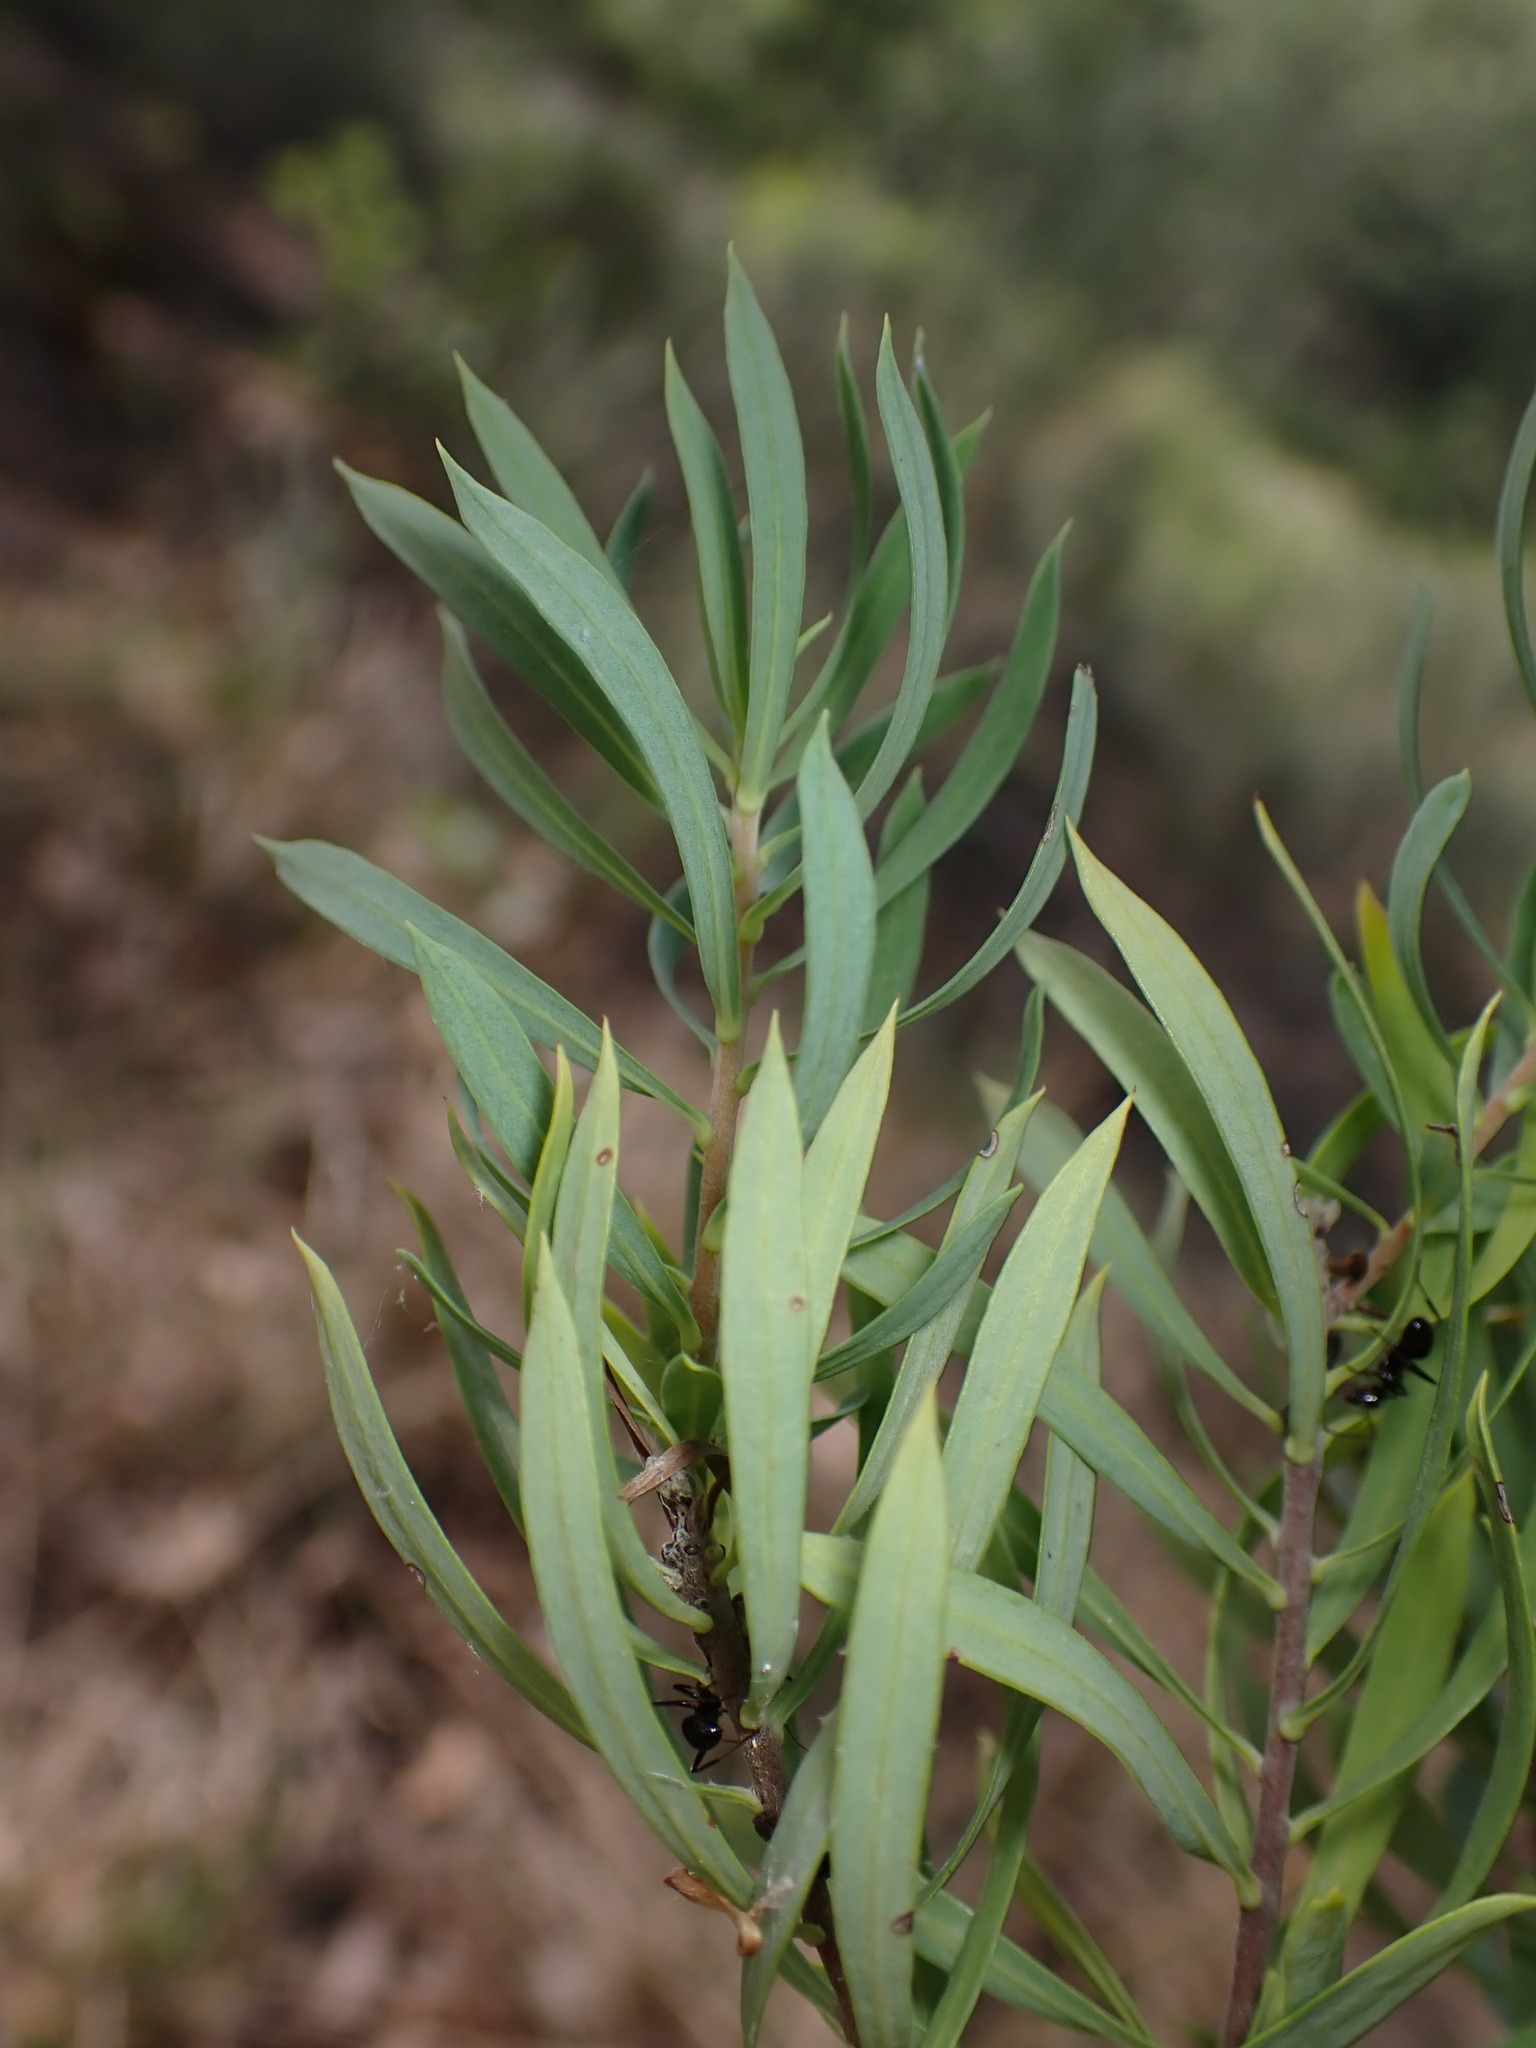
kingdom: Plantae
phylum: Tracheophyta
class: Magnoliopsida
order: Malvales
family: Thymelaeaceae
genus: Daphne
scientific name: Daphne gnidium
